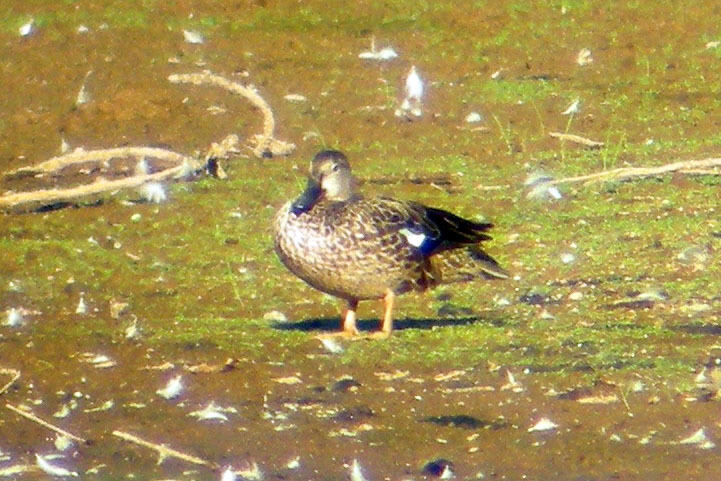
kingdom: Animalia
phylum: Chordata
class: Aves
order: Anseriformes
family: Anatidae
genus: Spatula
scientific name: Spatula discors
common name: Blue-winged teal
